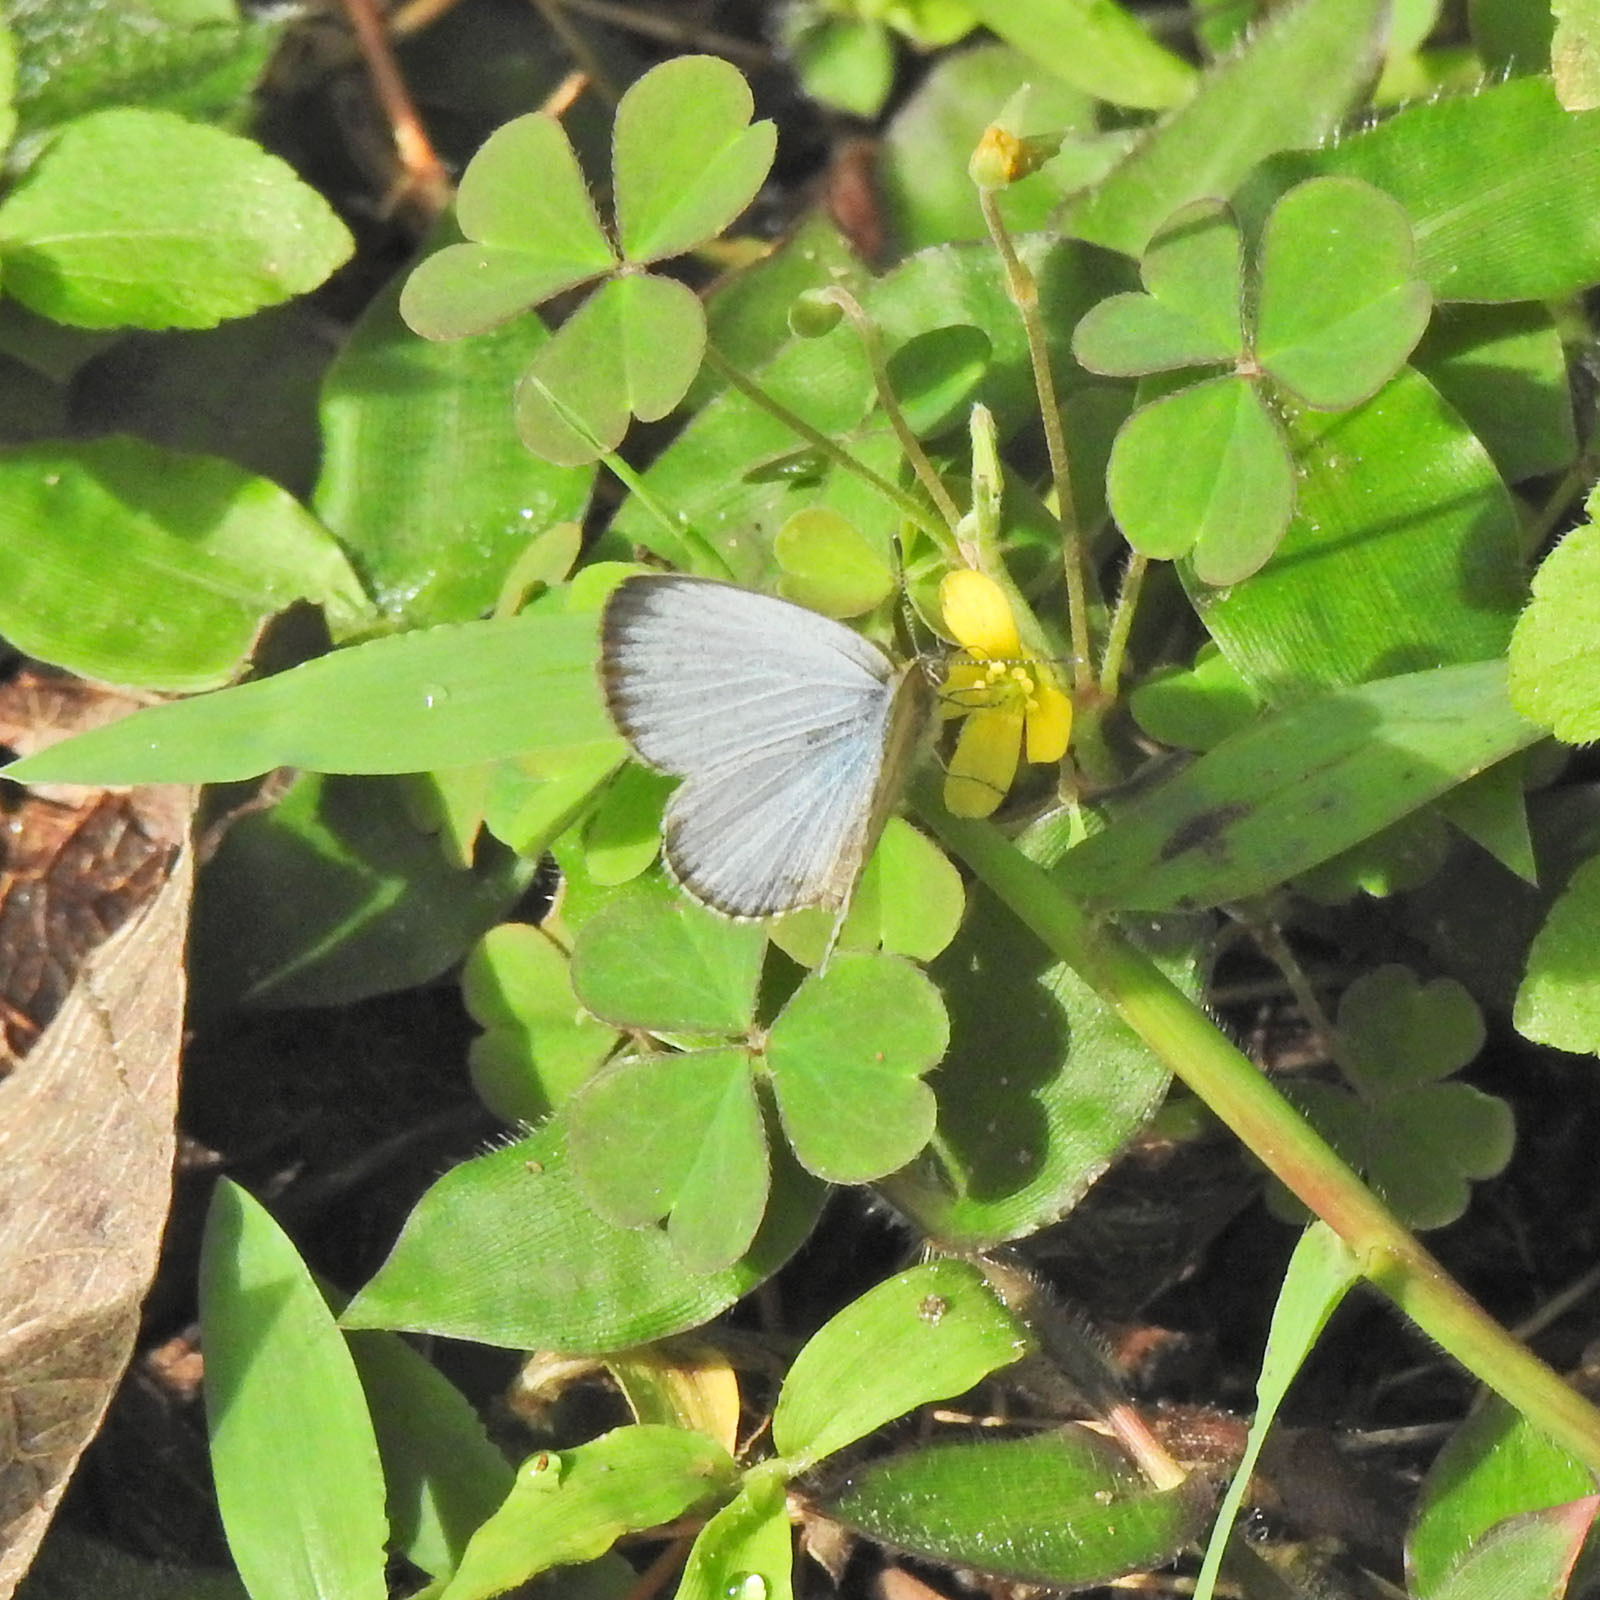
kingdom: Animalia
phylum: Arthropoda
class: Insecta
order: Lepidoptera
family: Lycaenidae
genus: Pseudozizeeria
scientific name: Pseudozizeeria maha
